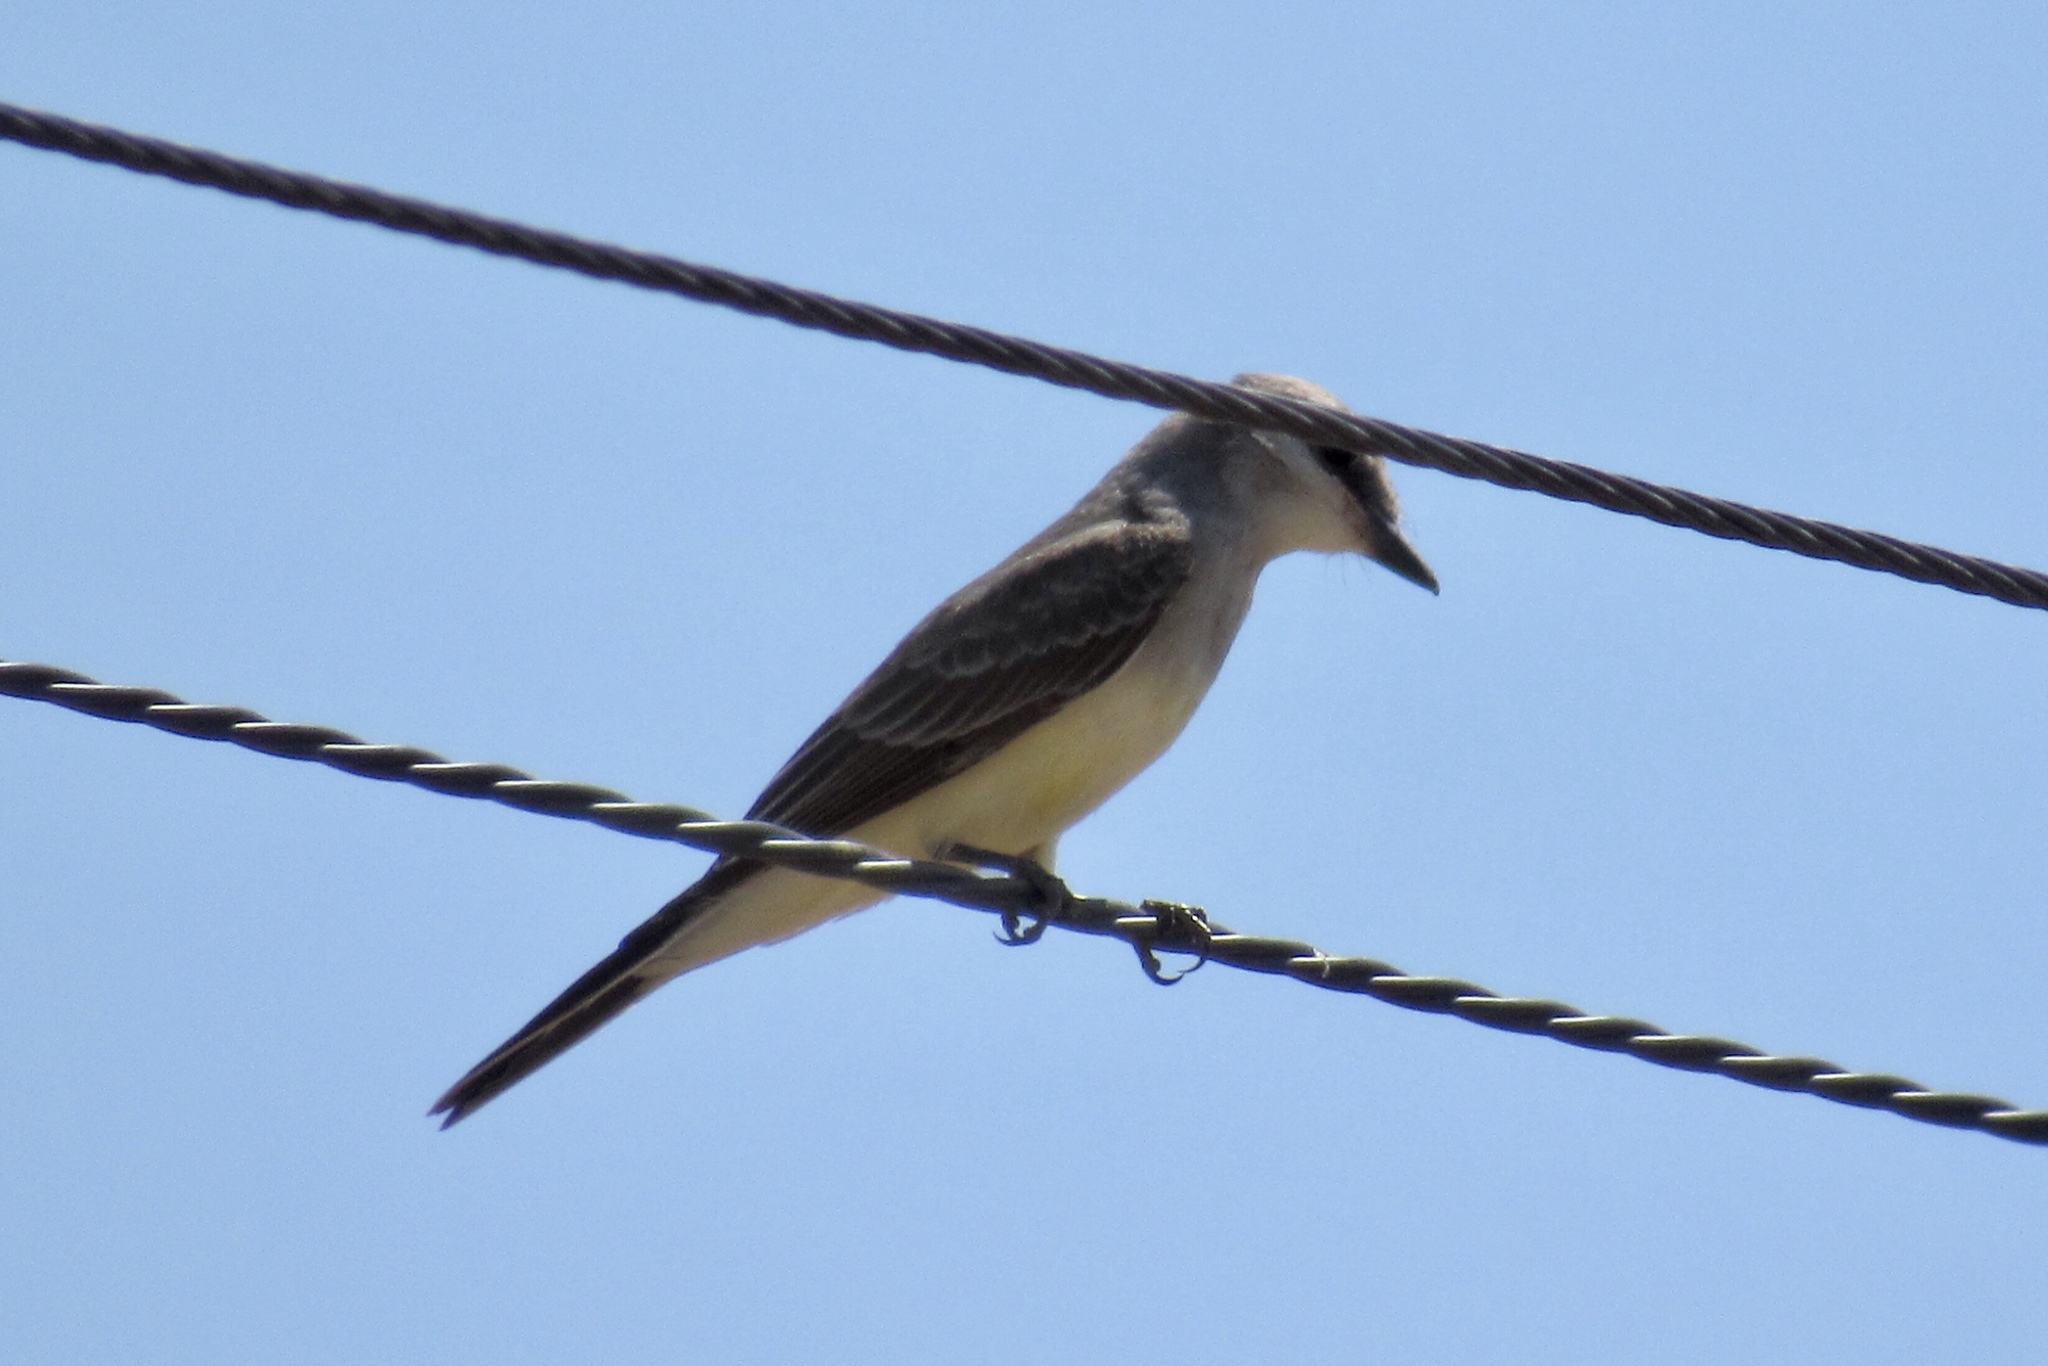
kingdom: Animalia
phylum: Chordata
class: Aves
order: Passeriformes
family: Tyrannidae
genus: Tyrannus
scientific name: Tyrannus verticalis
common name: Western kingbird
